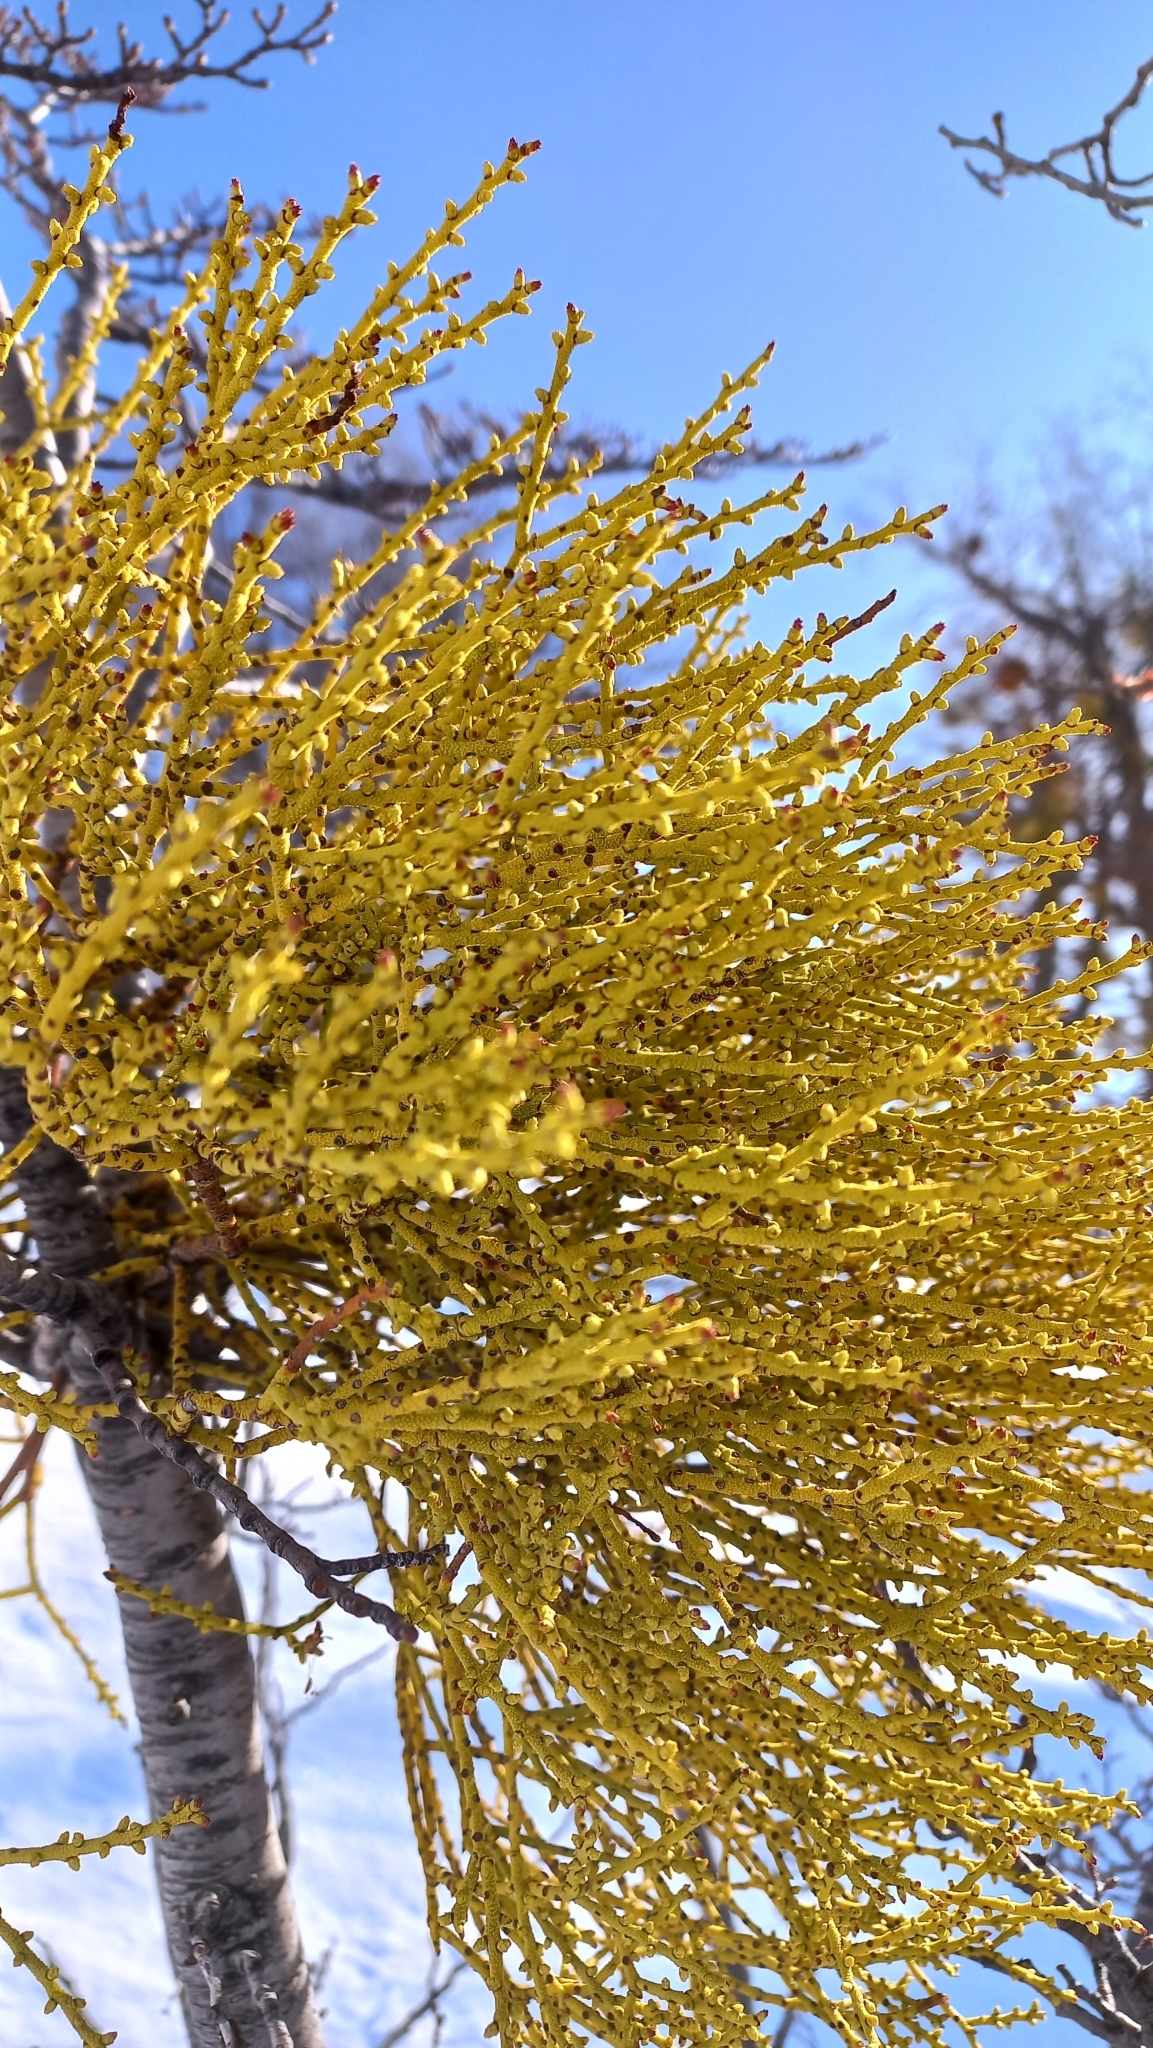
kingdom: Plantae
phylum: Tracheophyta
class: Magnoliopsida
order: Santalales
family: Misodendraceae
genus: Misodendrum
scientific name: Misodendrum punctulatum
